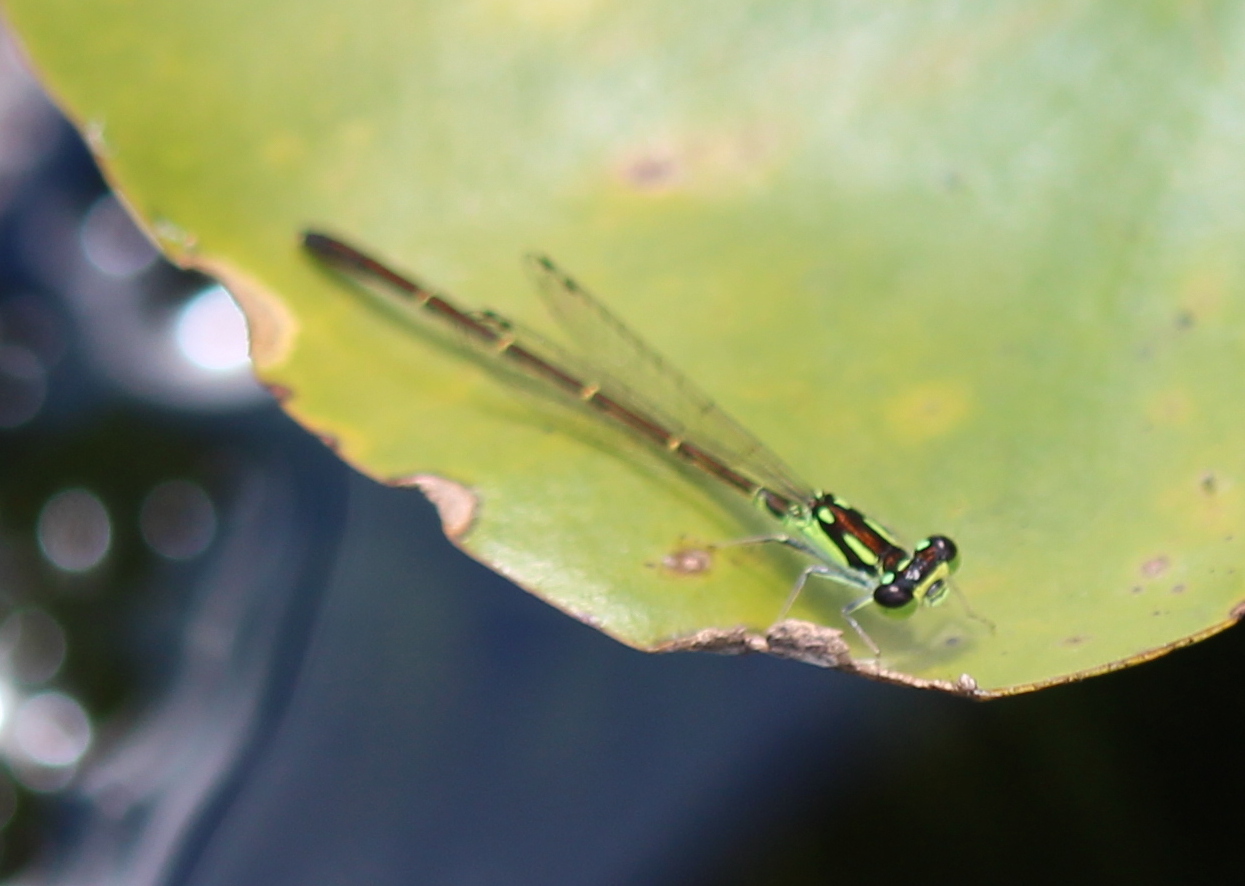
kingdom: Animalia
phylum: Arthropoda
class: Insecta
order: Odonata
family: Coenagrionidae
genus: Ischnura
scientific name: Ischnura posita
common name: Fragile forktail
